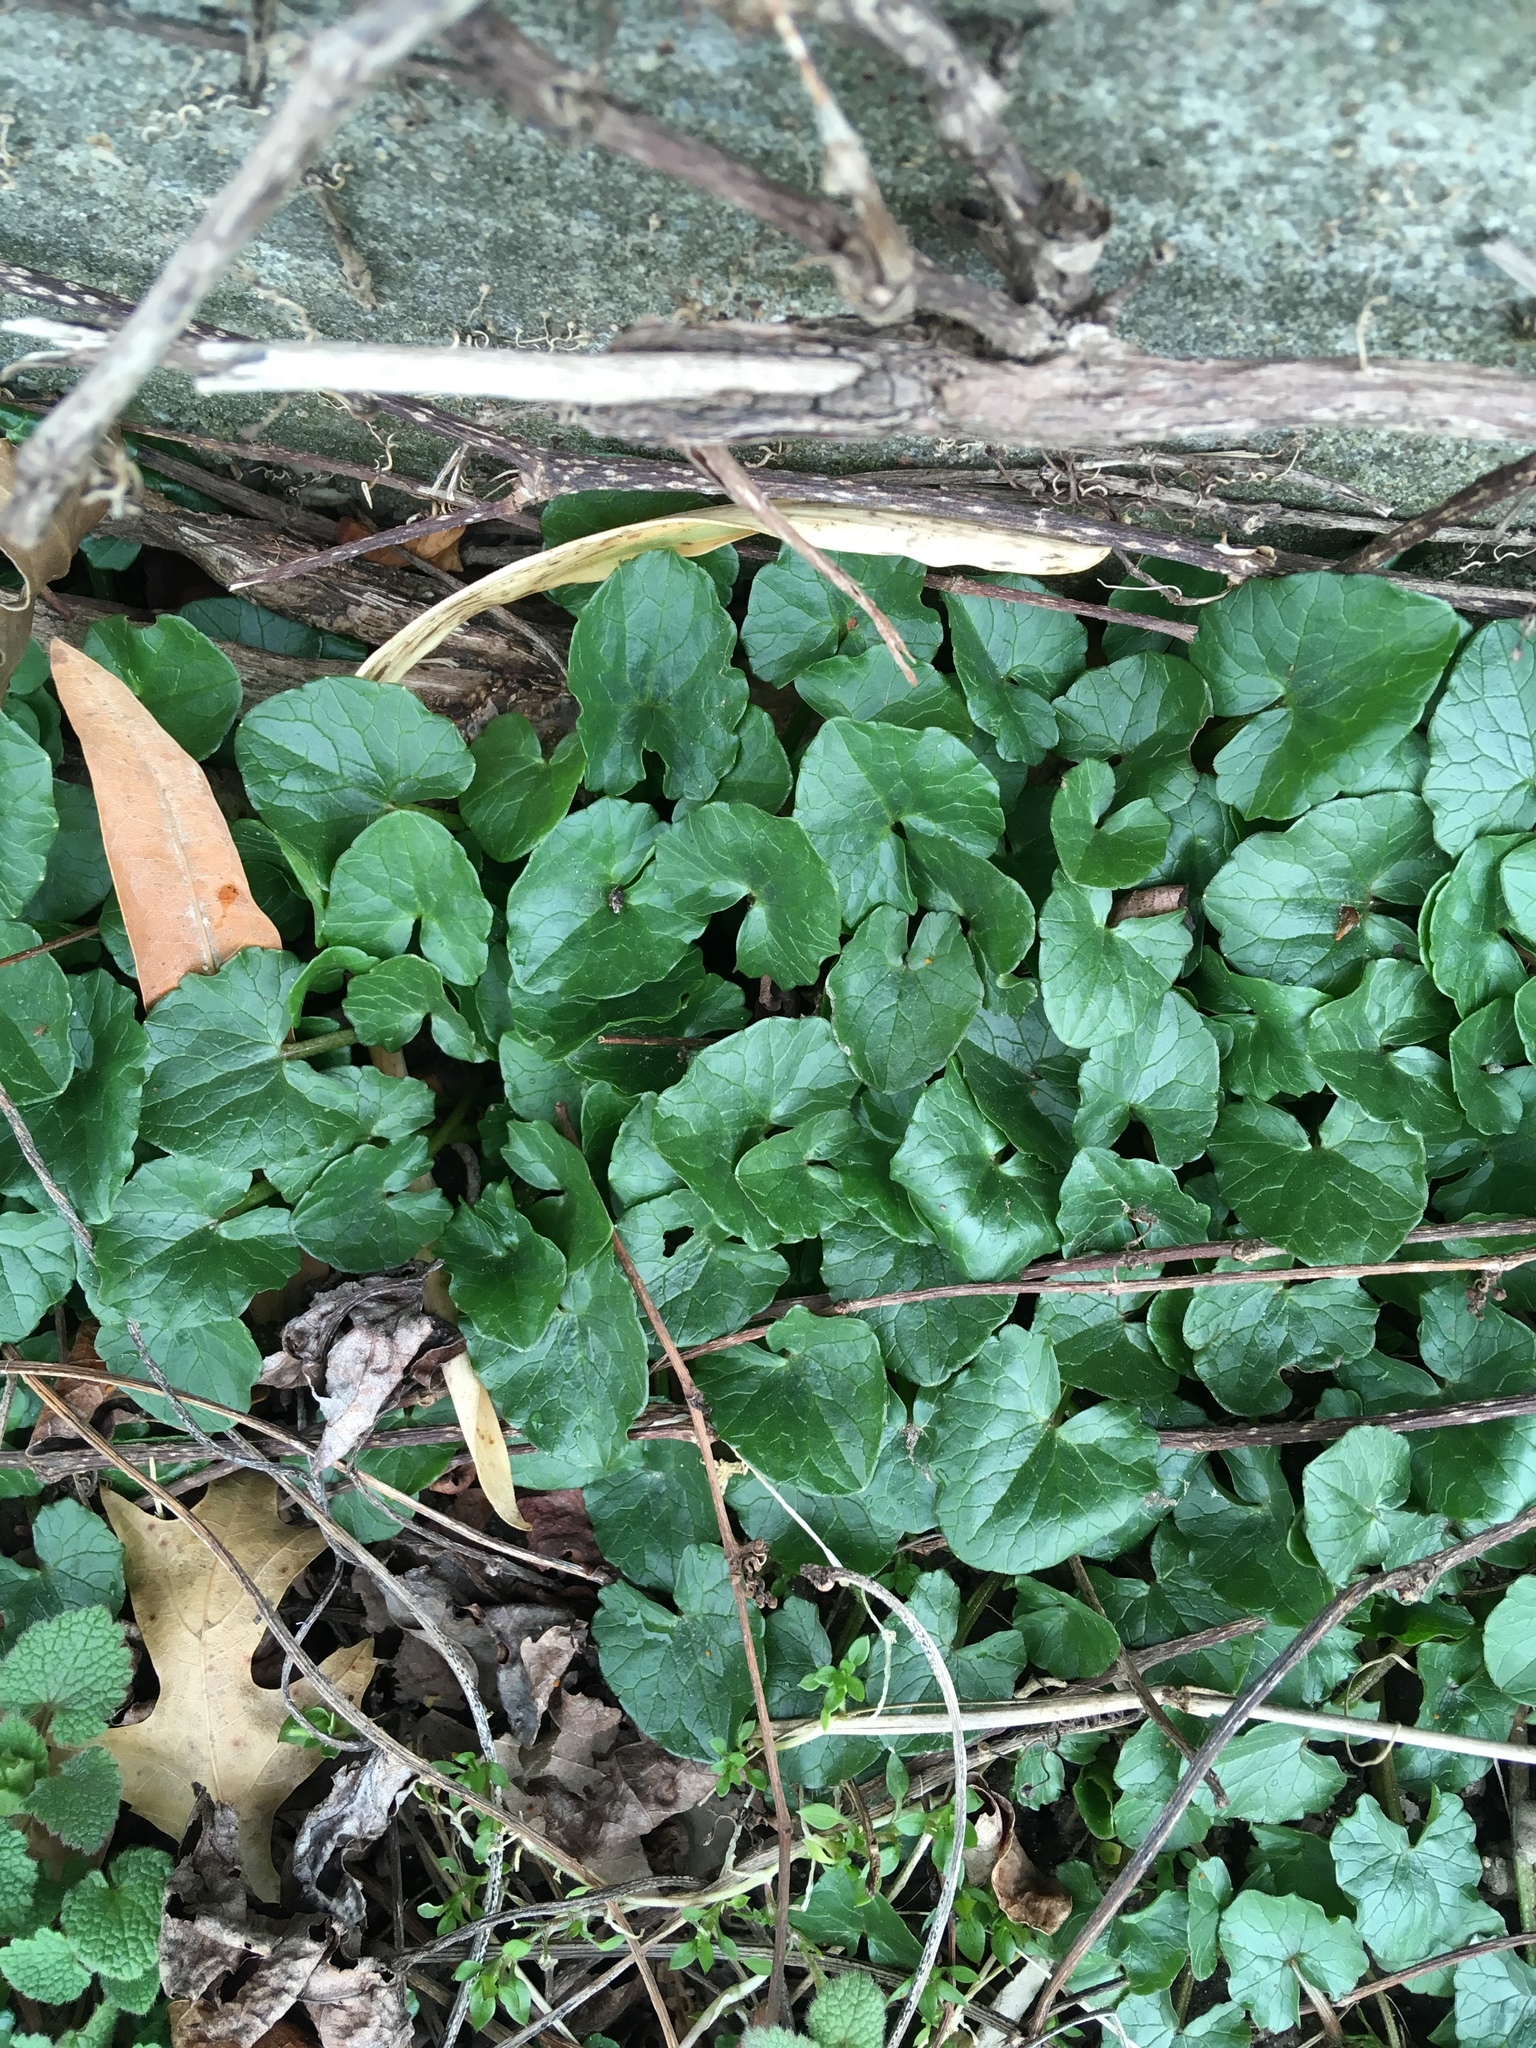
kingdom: Plantae
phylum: Tracheophyta
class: Magnoliopsida
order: Ranunculales
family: Ranunculaceae
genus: Ficaria
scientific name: Ficaria verna
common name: Lesser celandine
